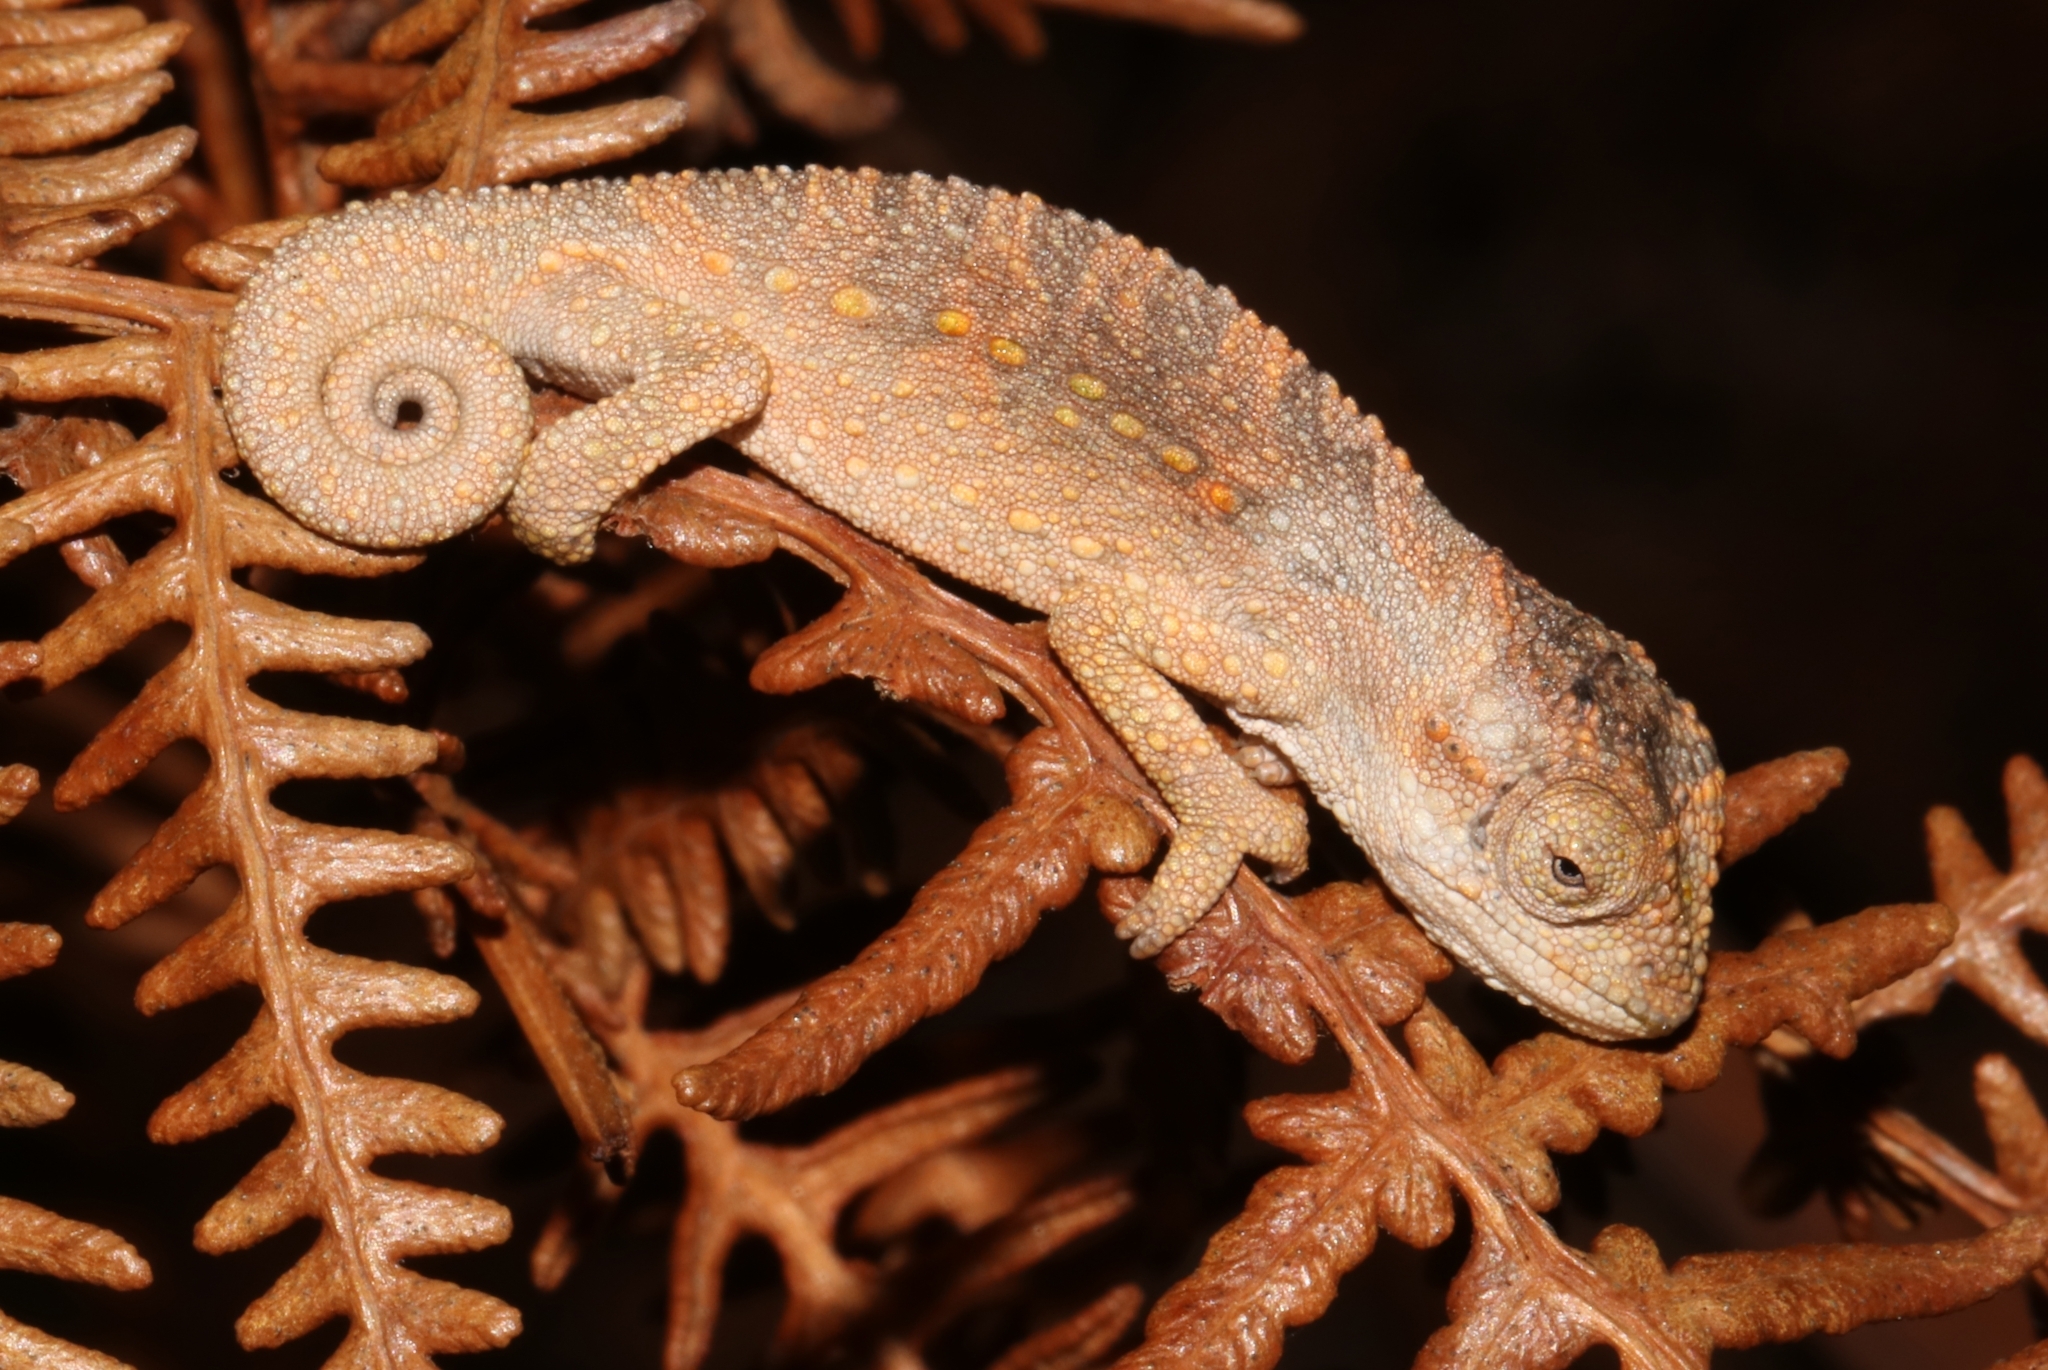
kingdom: Animalia
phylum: Chordata
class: Squamata
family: Chamaeleonidae
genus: Bradypodion
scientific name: Bradypodion gutturale
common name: Little karoo dwarf chameleon
